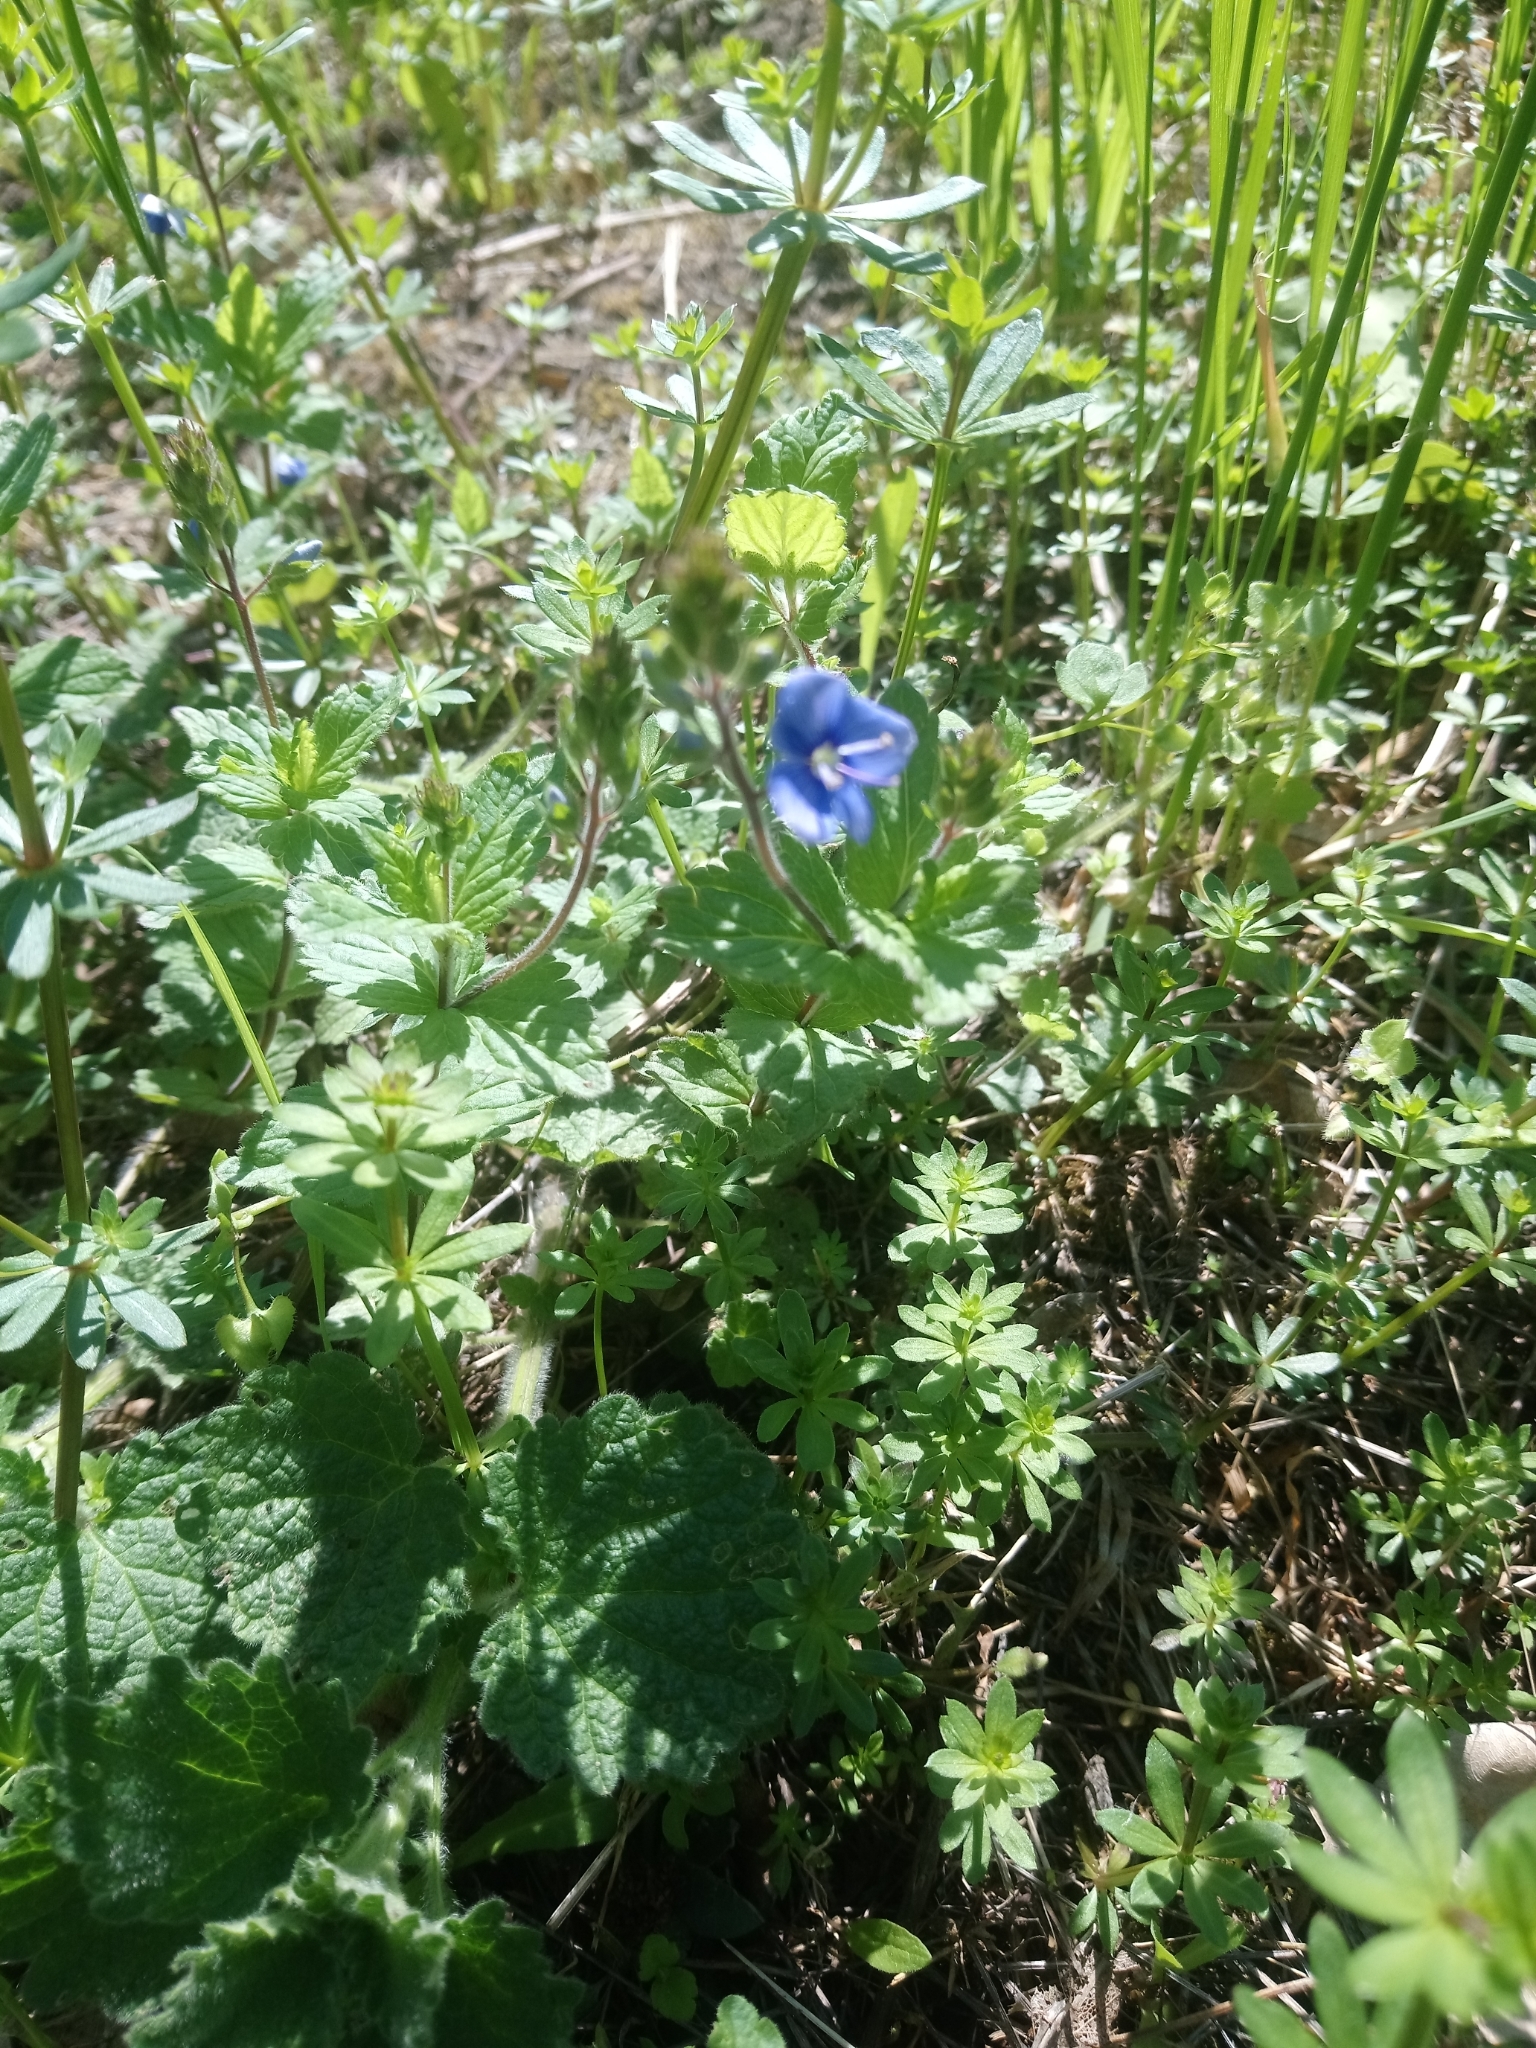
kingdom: Plantae
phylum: Tracheophyta
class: Magnoliopsida
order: Lamiales
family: Plantaginaceae
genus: Veronica
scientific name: Veronica chamaedrys
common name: Germander speedwell
